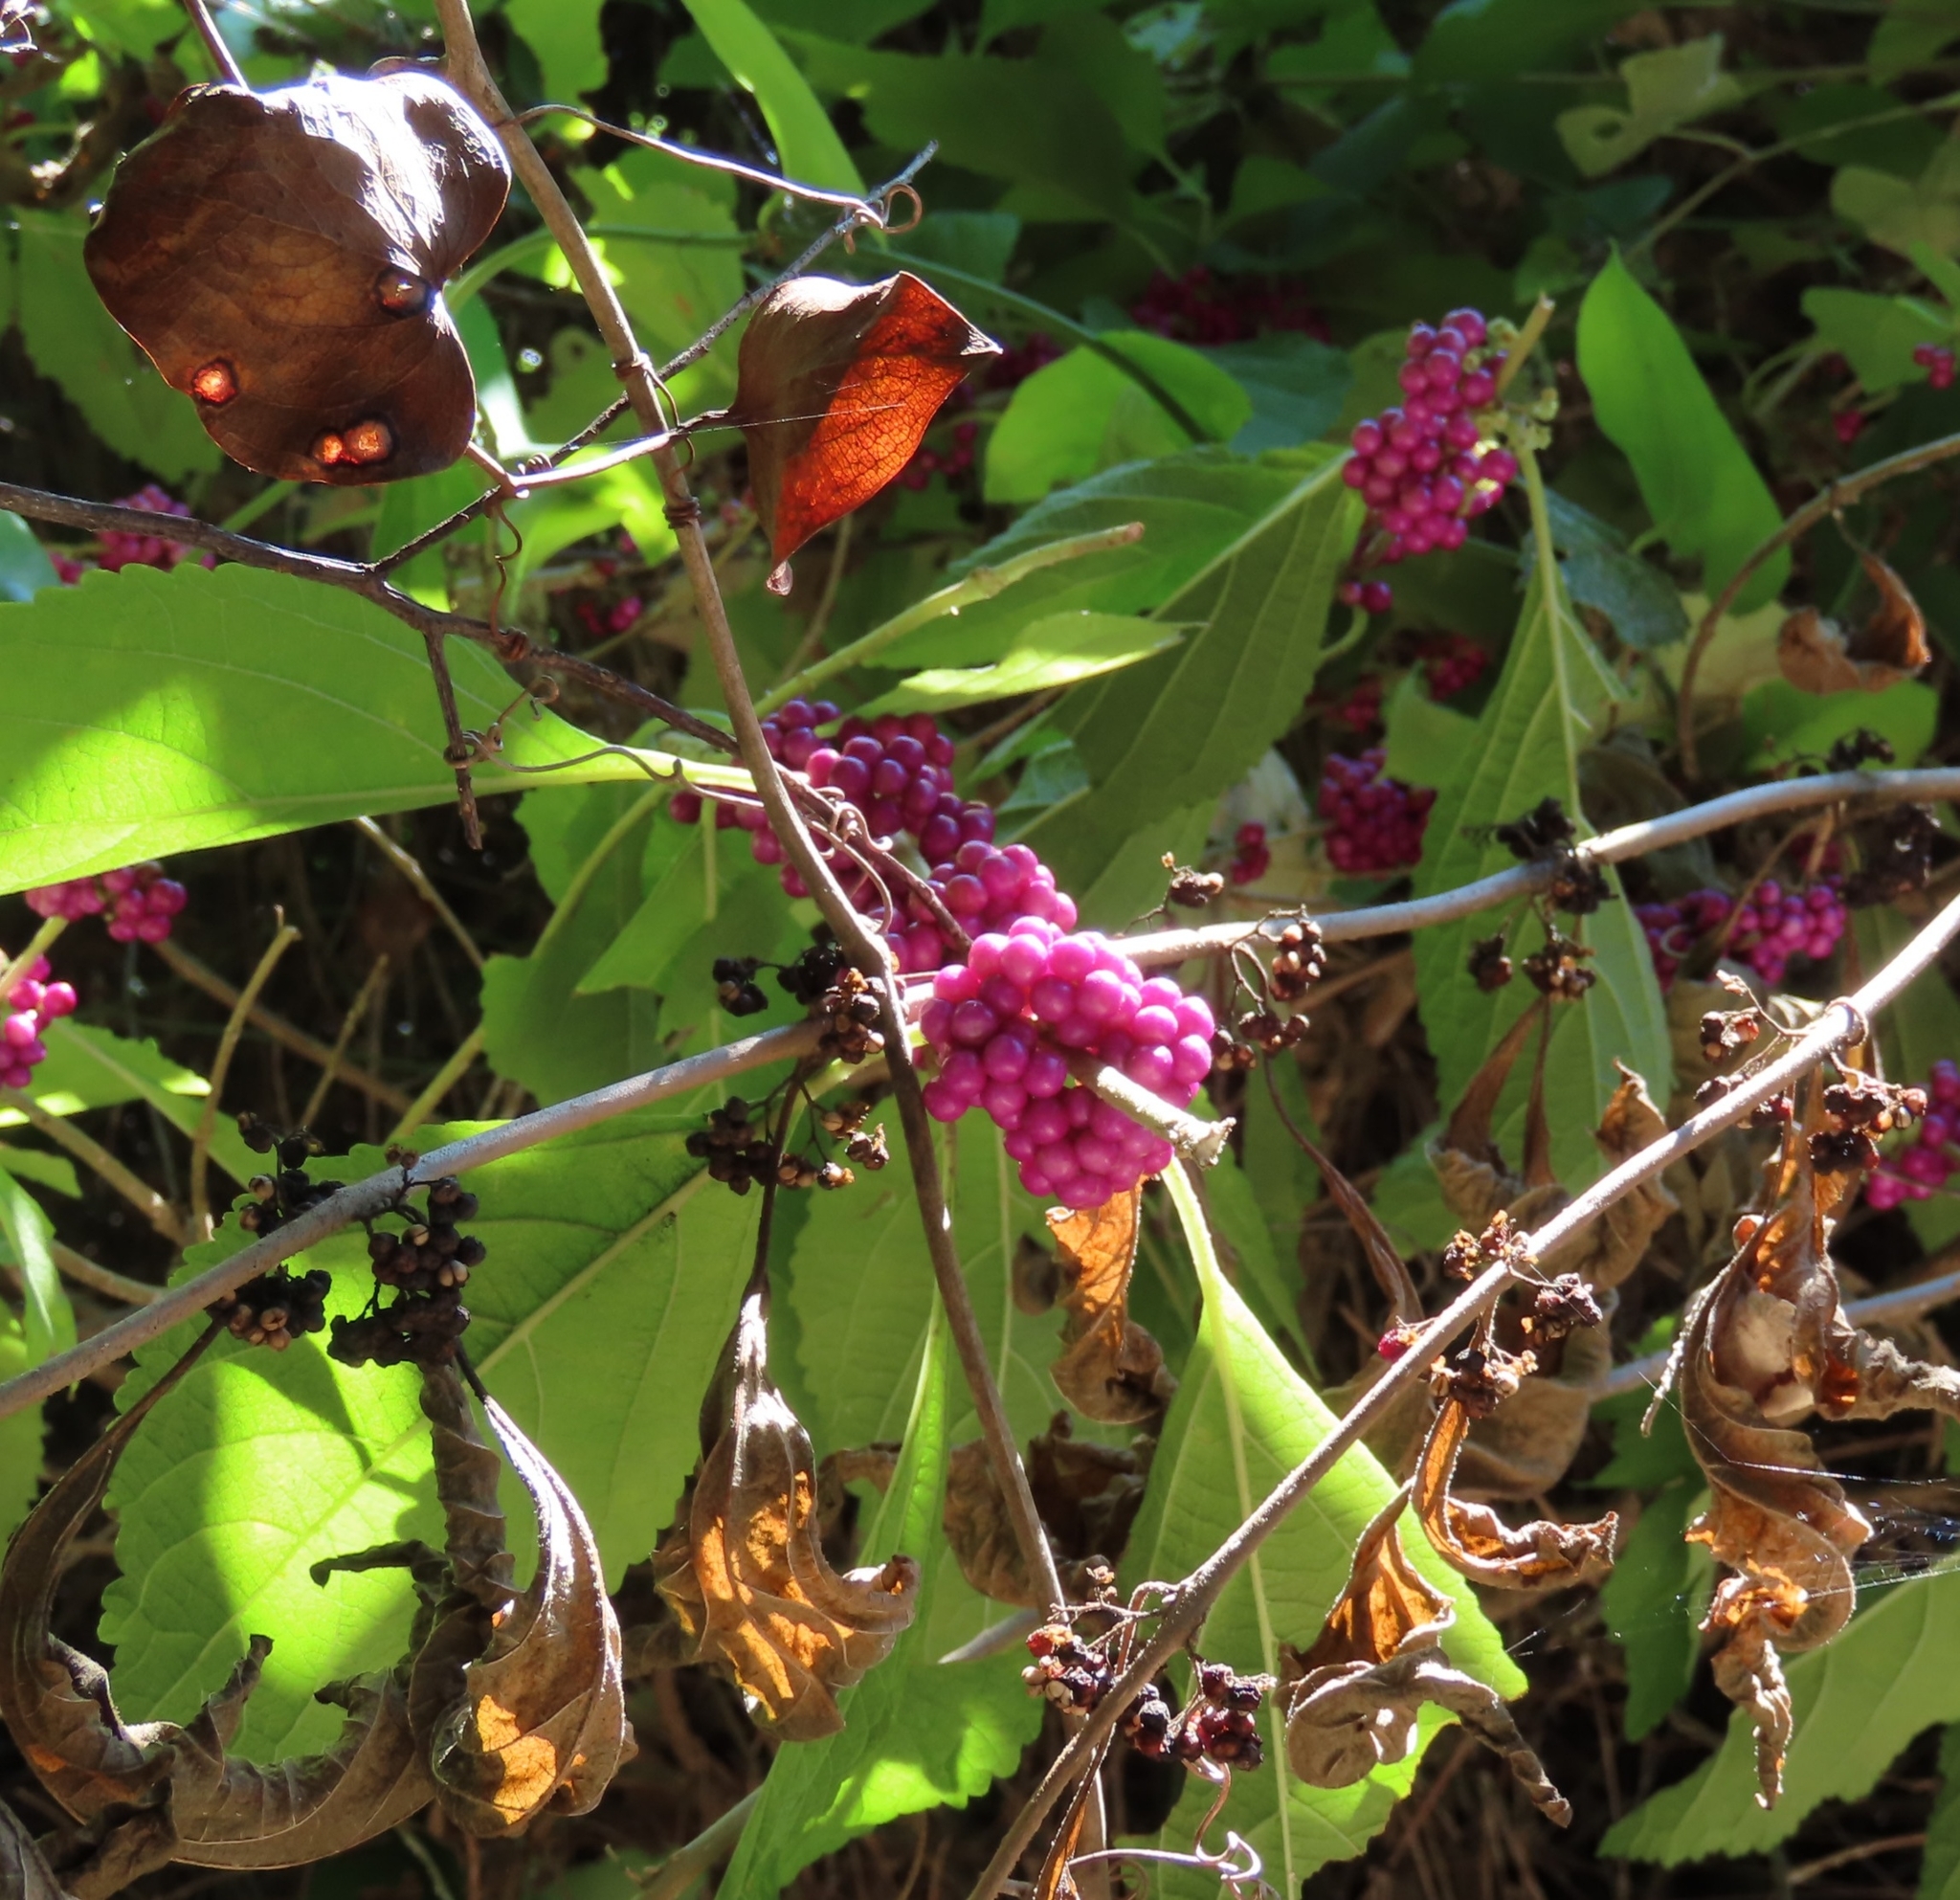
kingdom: Plantae
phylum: Tracheophyta
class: Magnoliopsida
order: Lamiales
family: Lamiaceae
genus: Callicarpa
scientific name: Callicarpa americana
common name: American beautyberry
